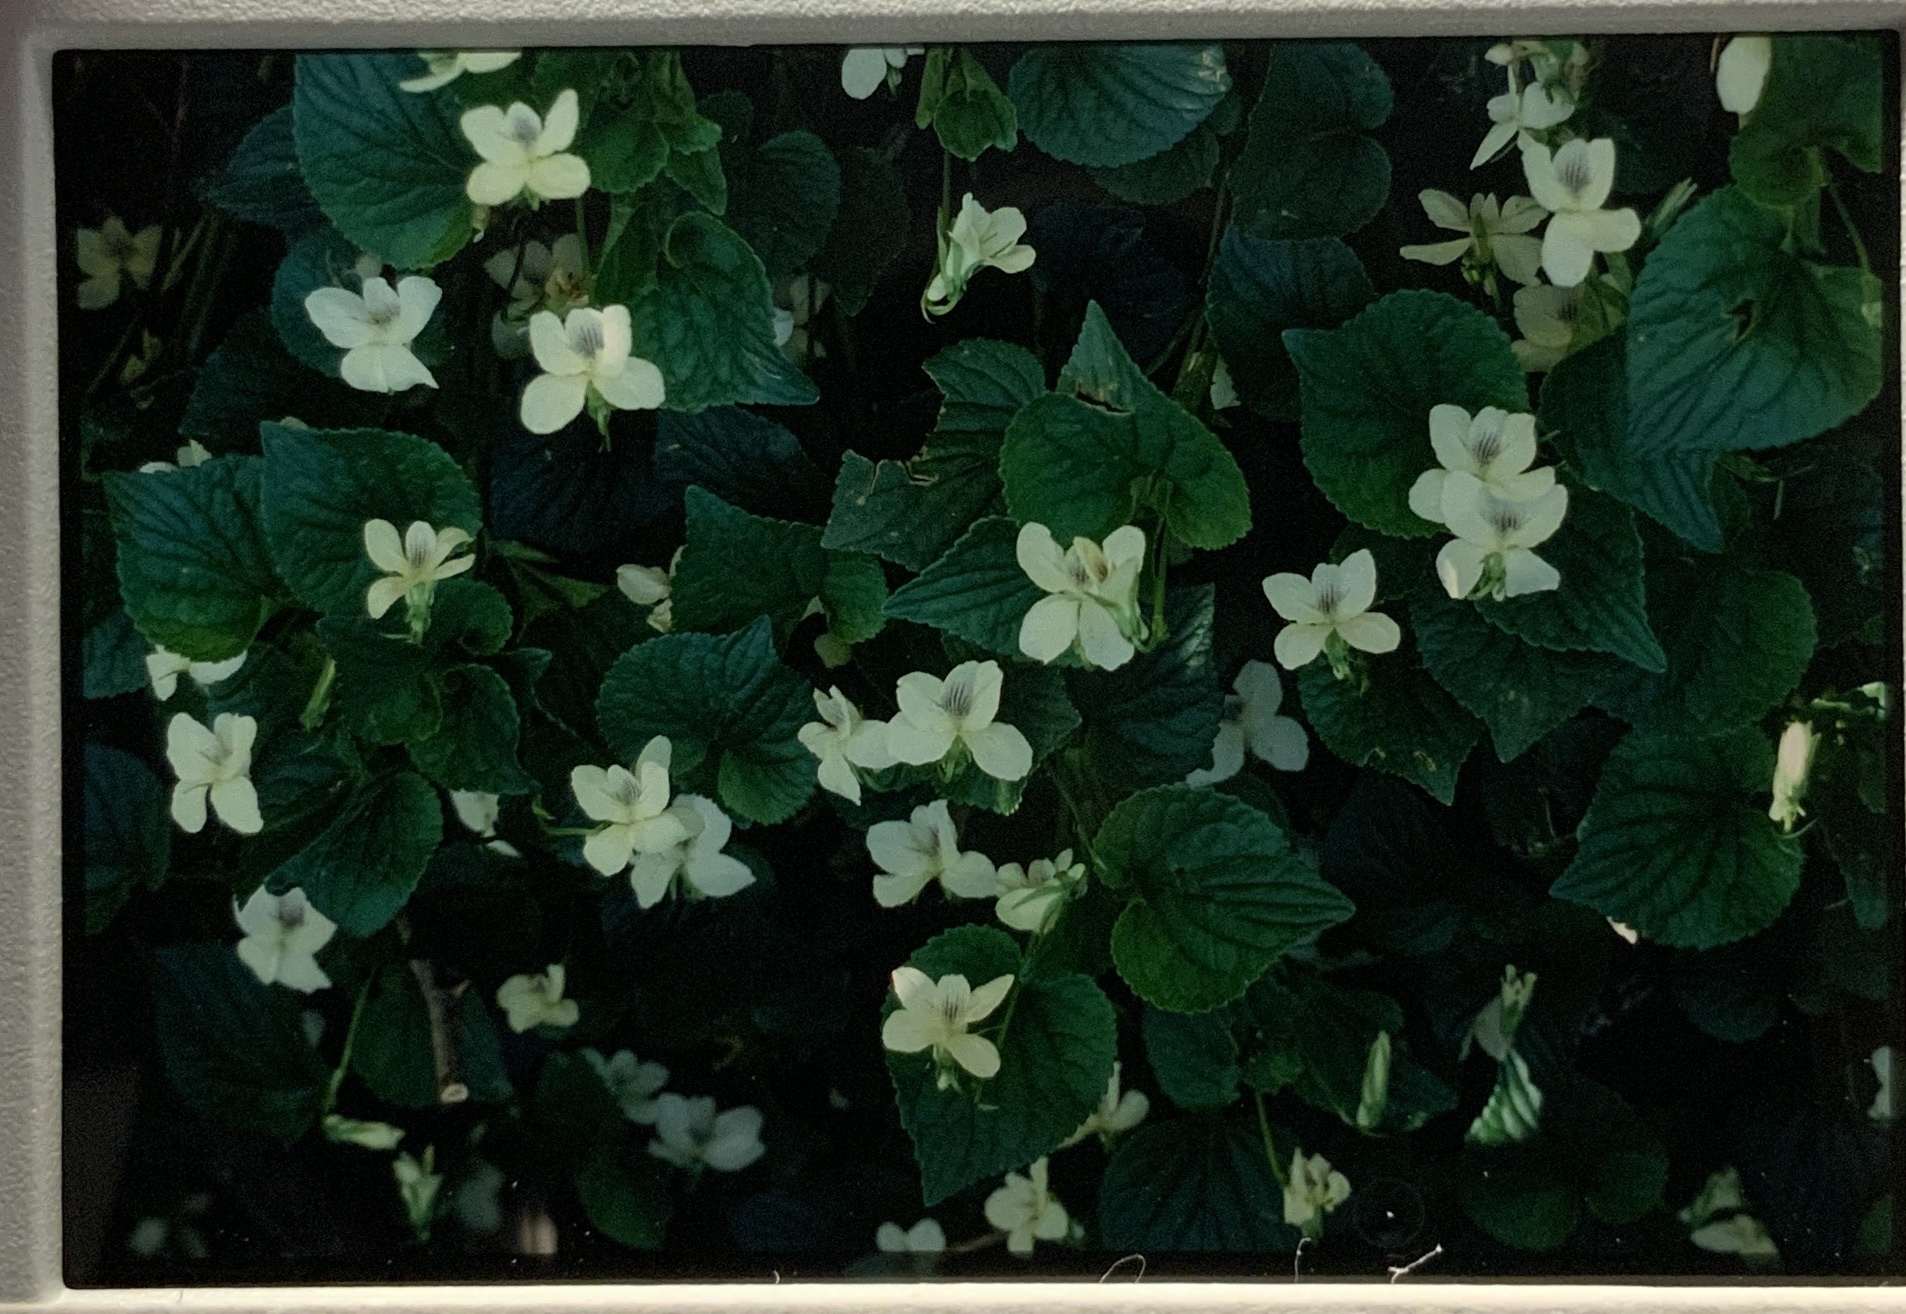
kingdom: Plantae
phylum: Tracheophyta
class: Magnoliopsida
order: Malpighiales
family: Violaceae
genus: Viola
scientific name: Viola striata
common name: Cream violet
